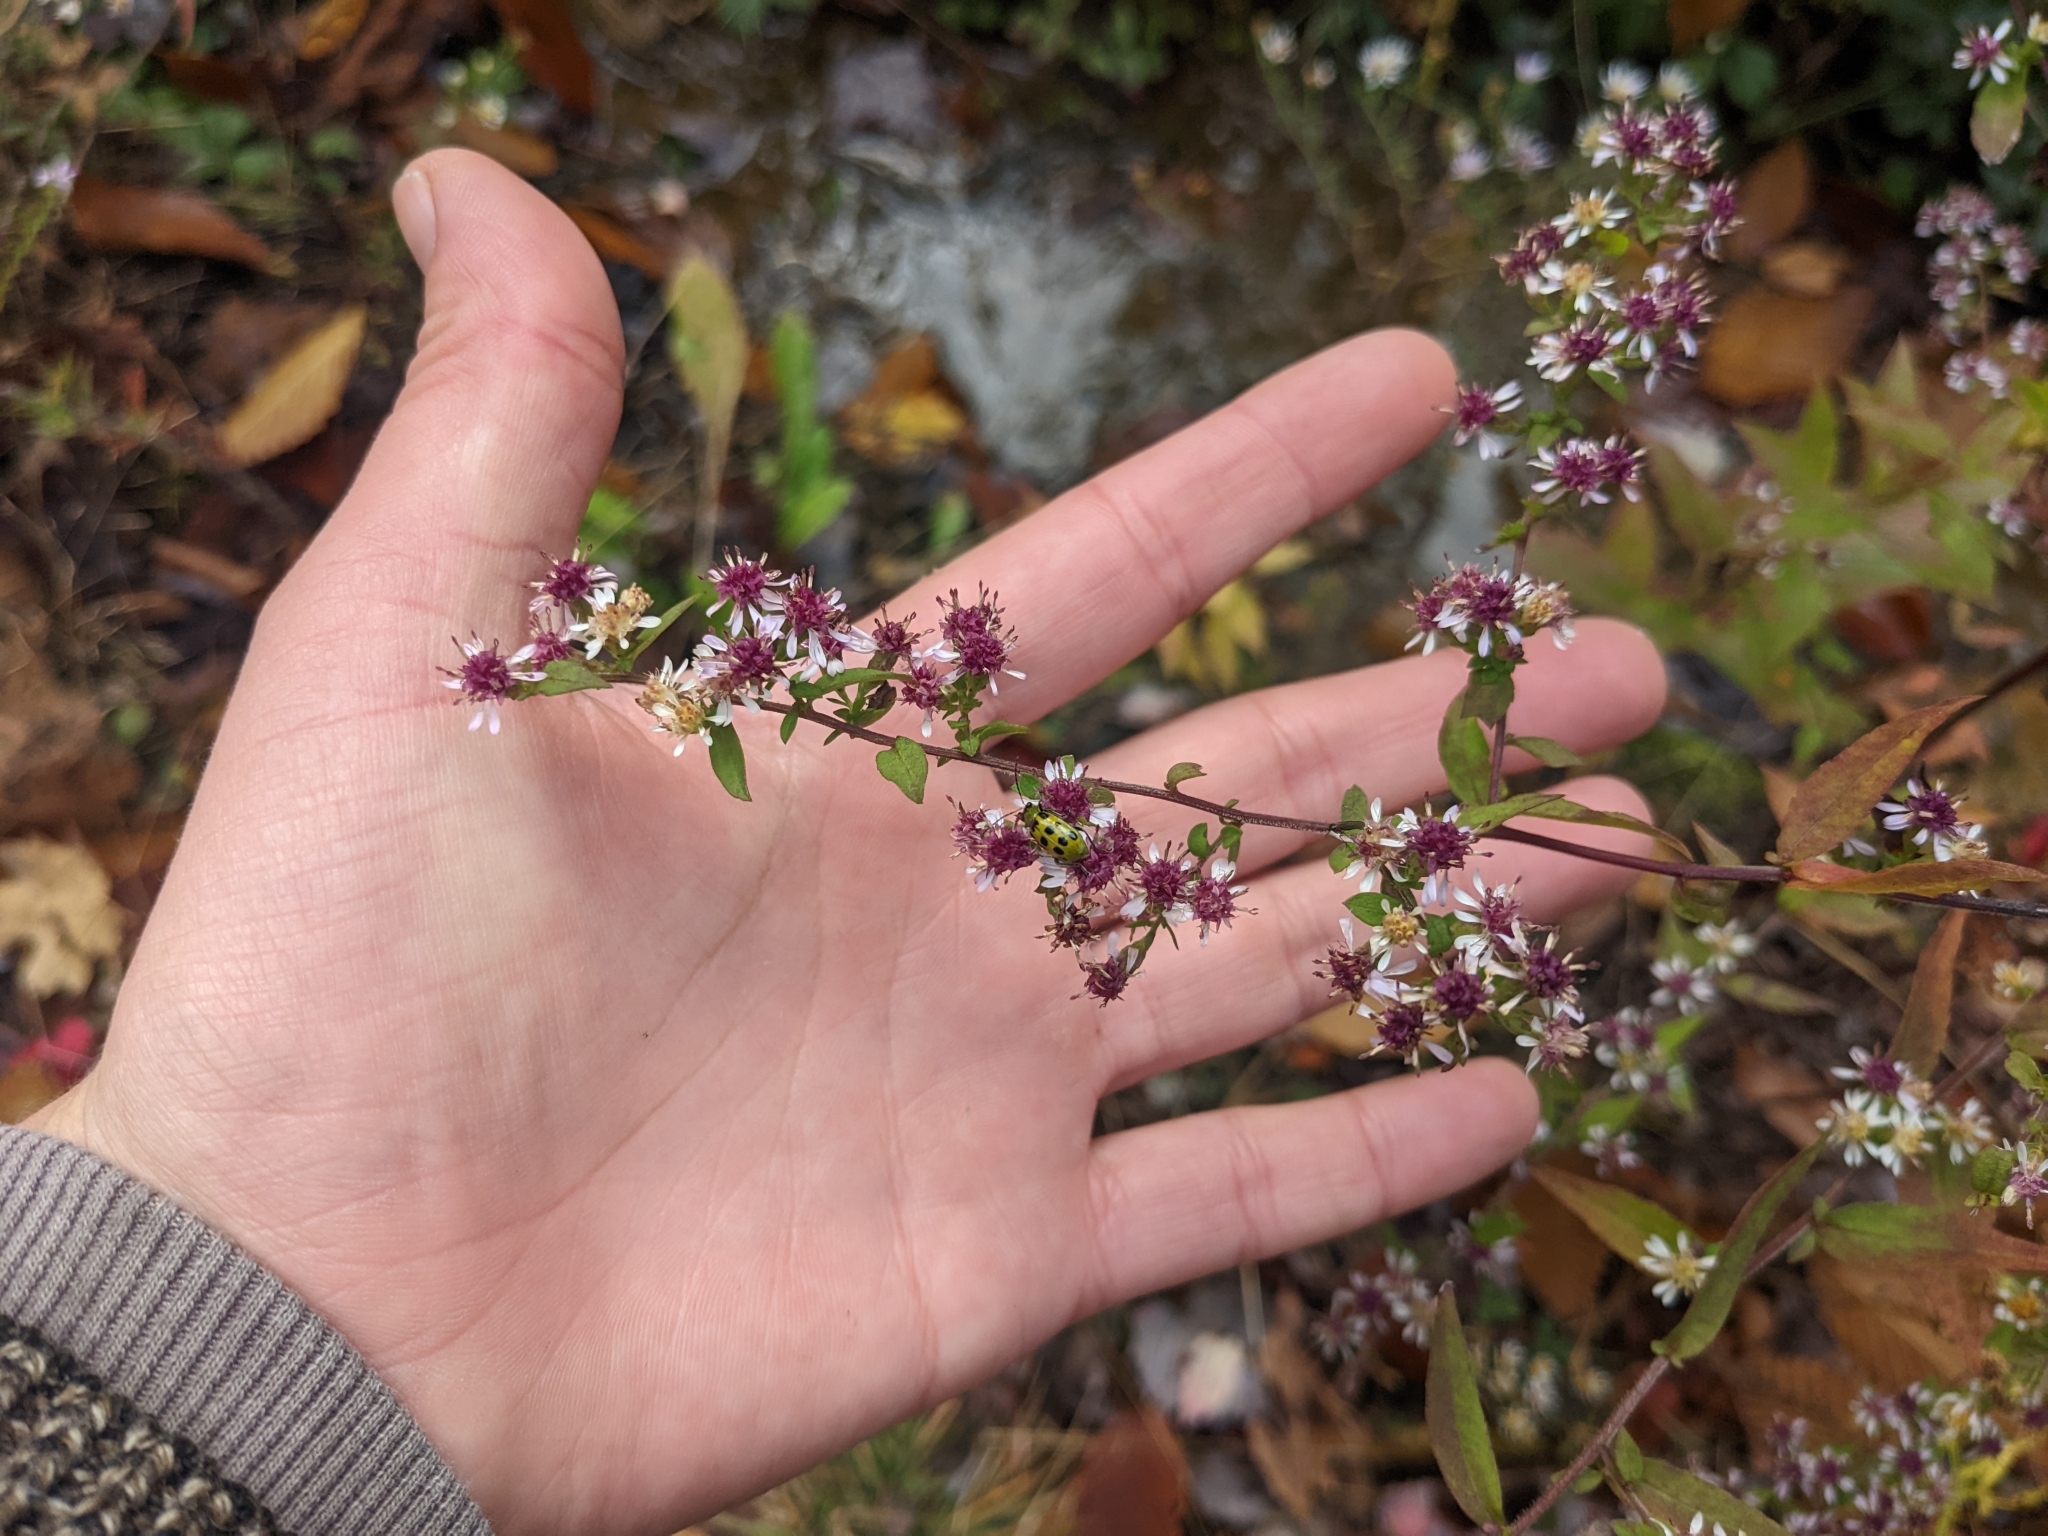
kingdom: Plantae
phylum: Tracheophyta
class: Magnoliopsida
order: Asterales
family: Asteraceae
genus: Symphyotrichum
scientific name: Symphyotrichum lateriflorum
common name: Calico aster
